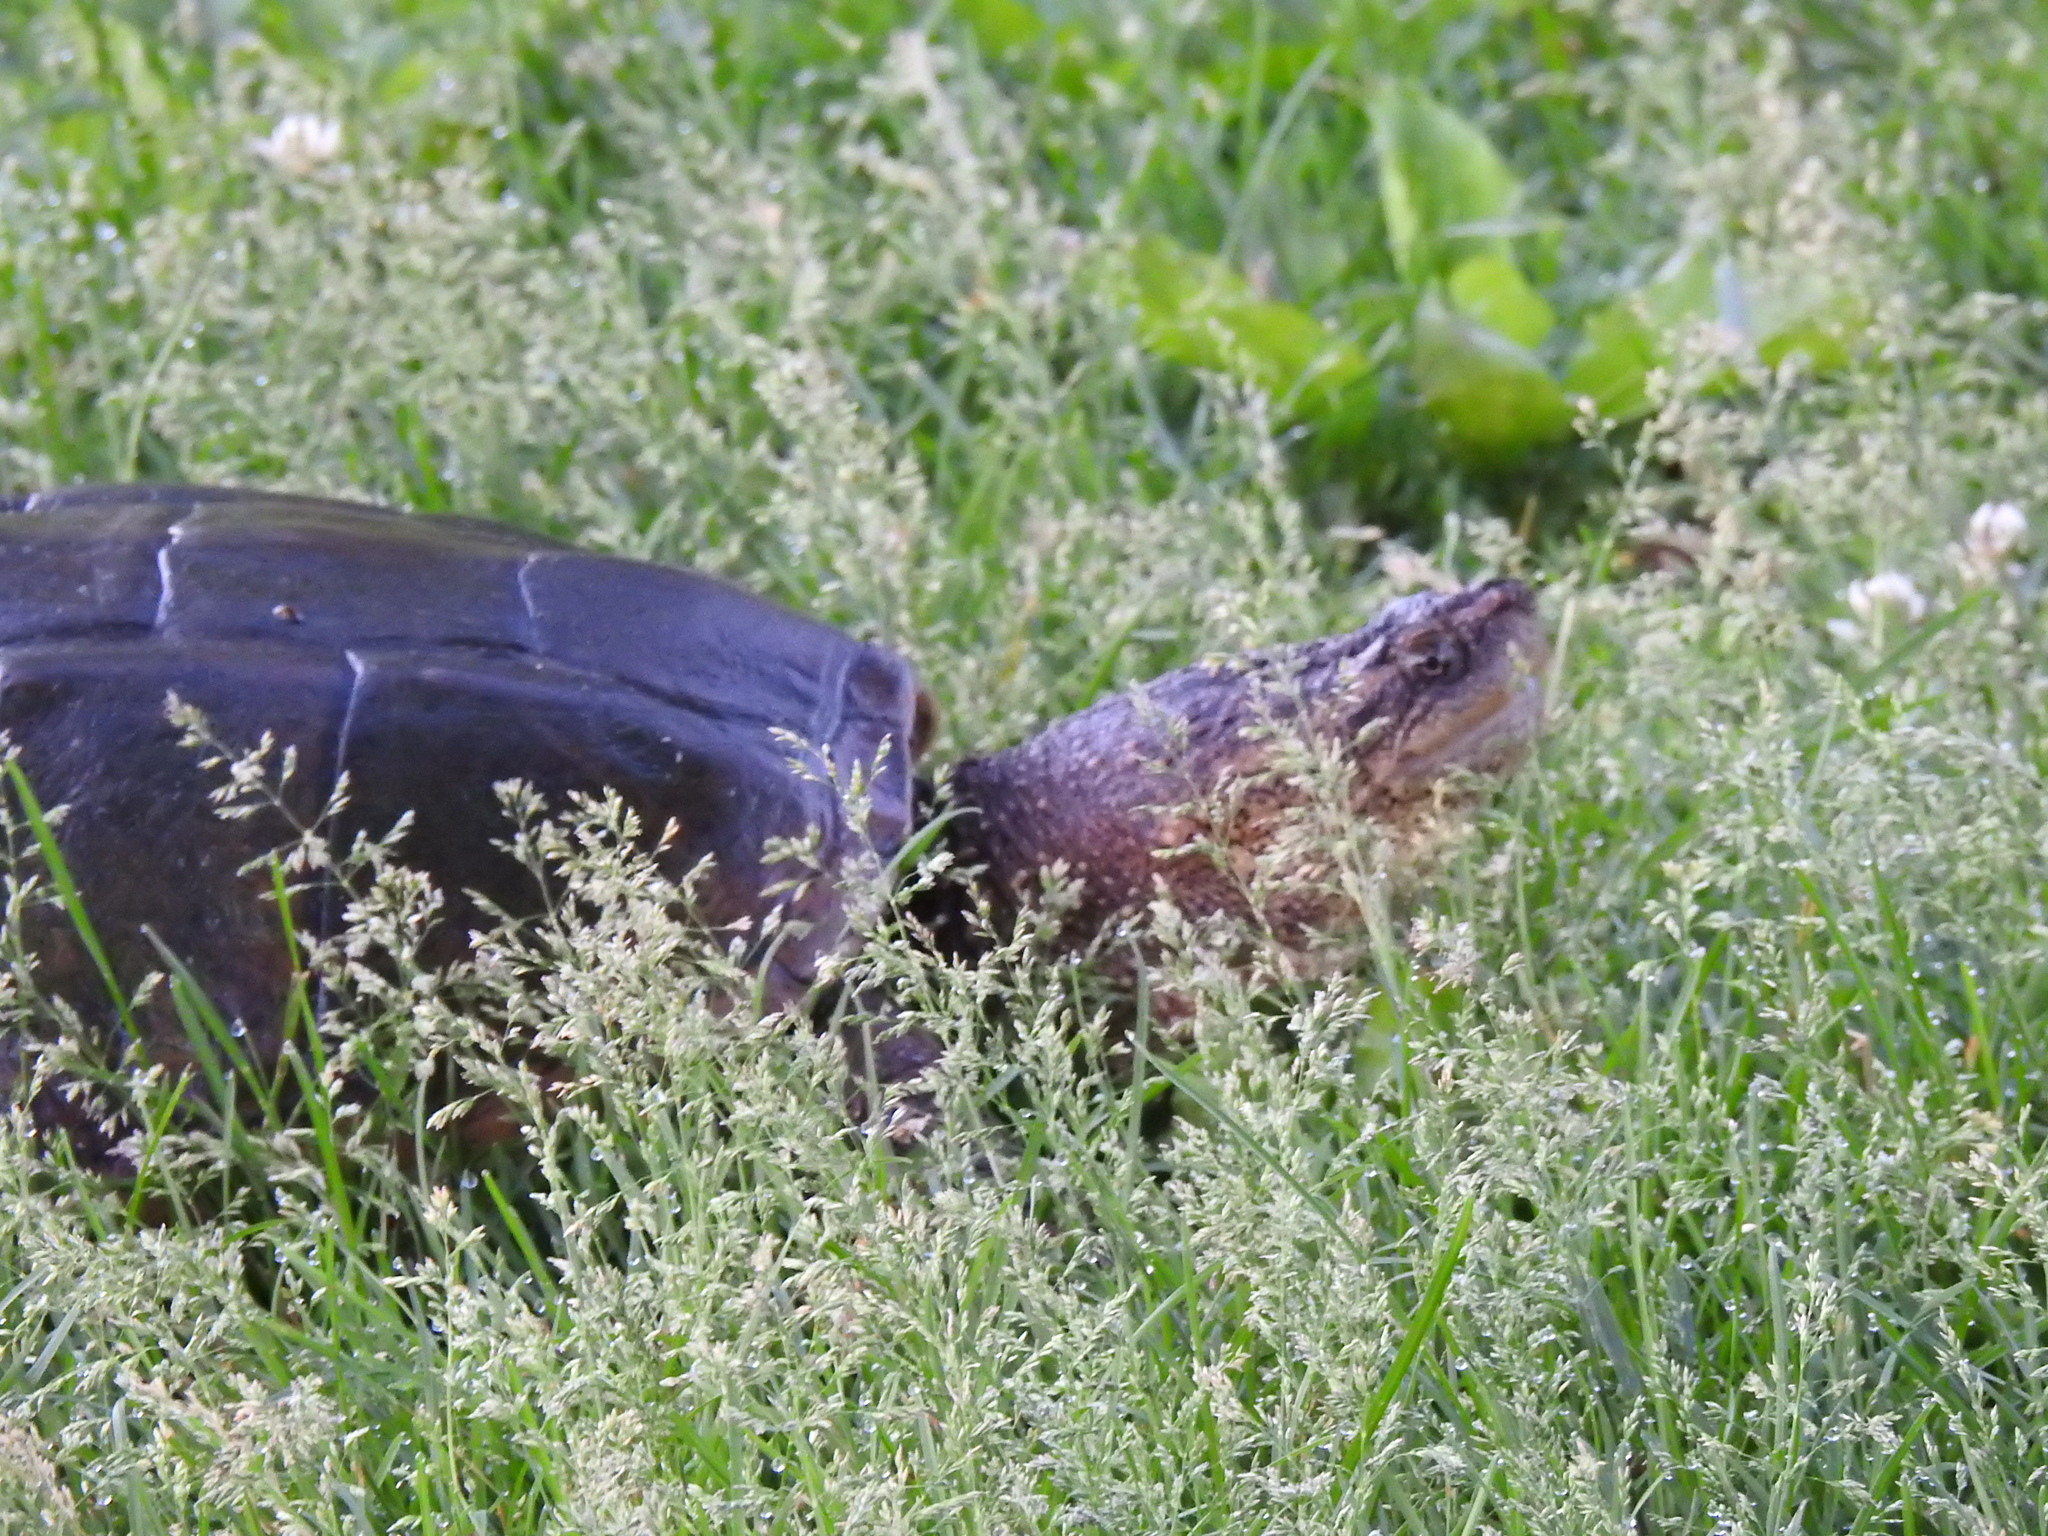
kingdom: Animalia
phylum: Chordata
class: Testudines
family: Chelydridae
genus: Chelydra
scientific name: Chelydra serpentina
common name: Common snapping turtle
